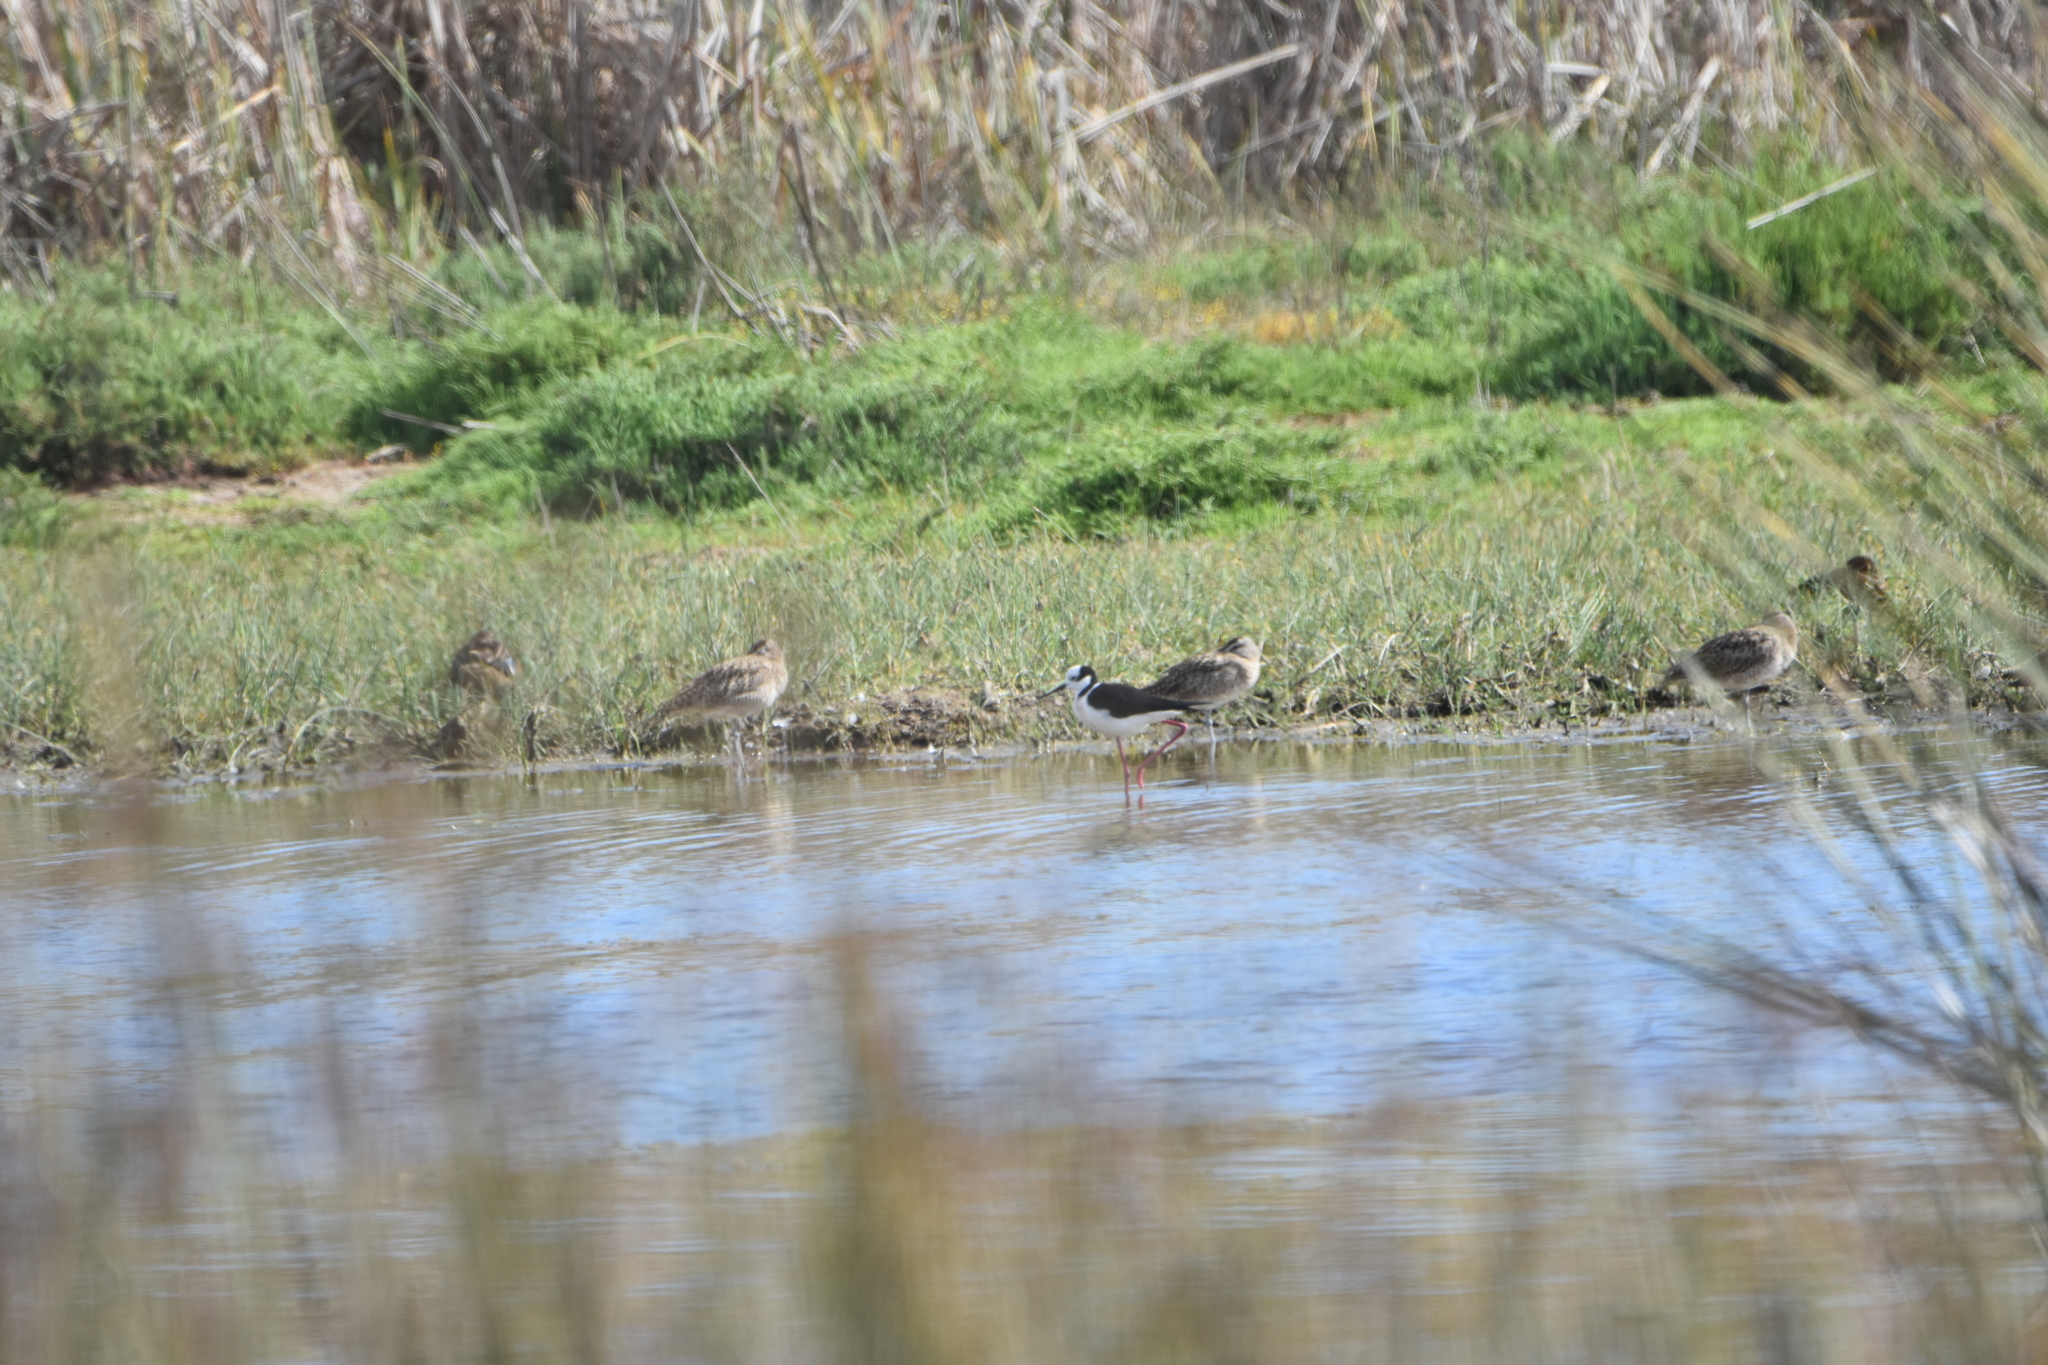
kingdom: Animalia
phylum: Chordata
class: Aves
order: Charadriiformes
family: Recurvirostridae
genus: Himantopus
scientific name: Himantopus mexicanus
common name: Black-necked stilt
